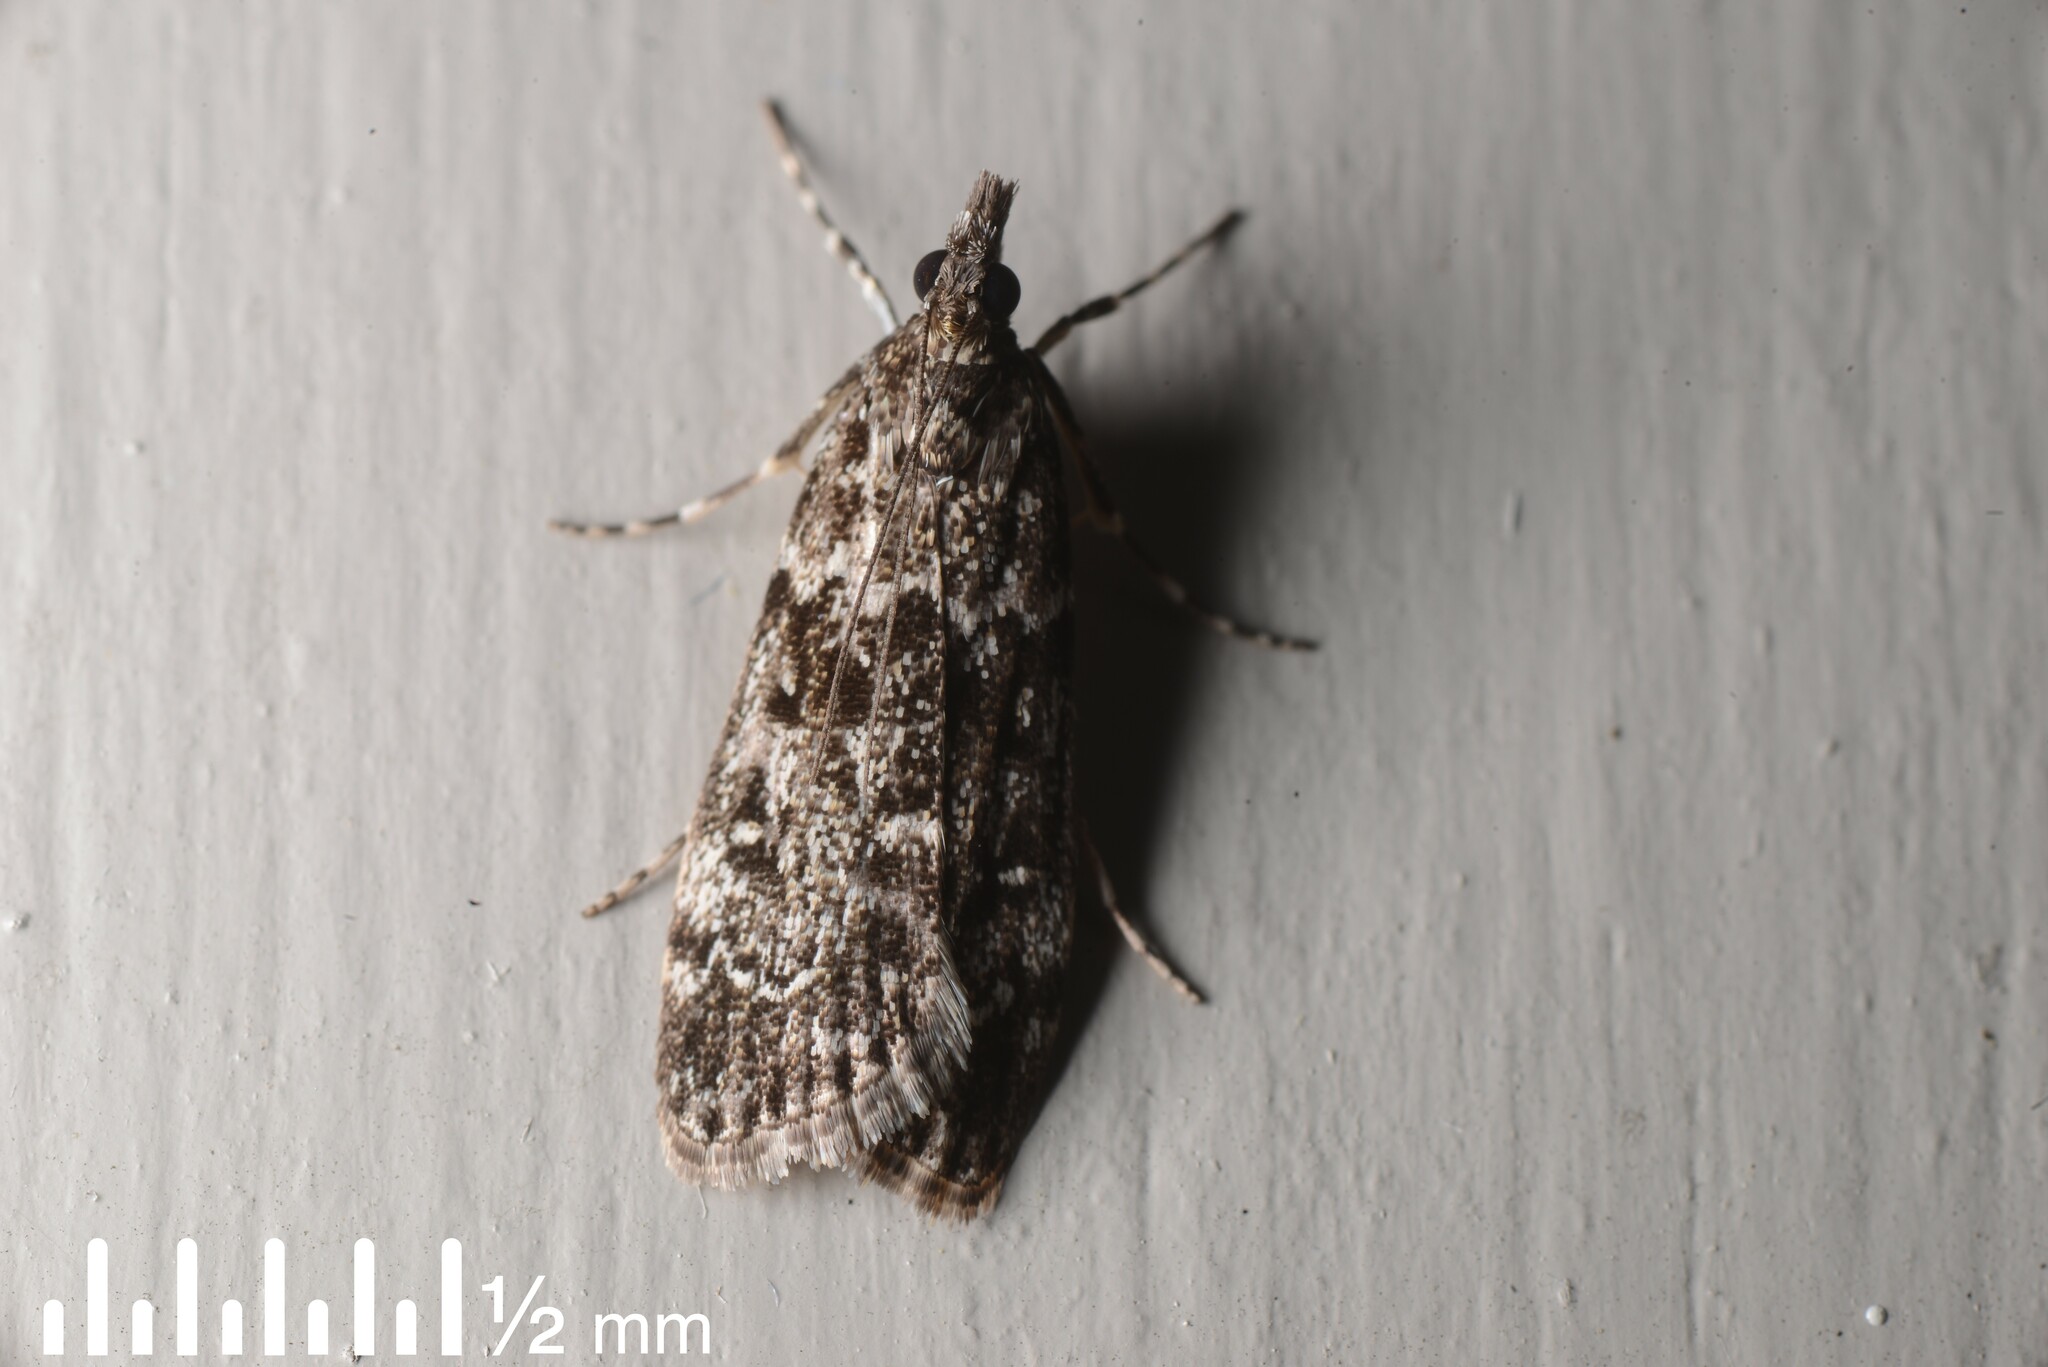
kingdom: Animalia
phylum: Arthropoda
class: Insecta
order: Lepidoptera
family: Crambidae
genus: Eudonia
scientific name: Eudonia philerga
